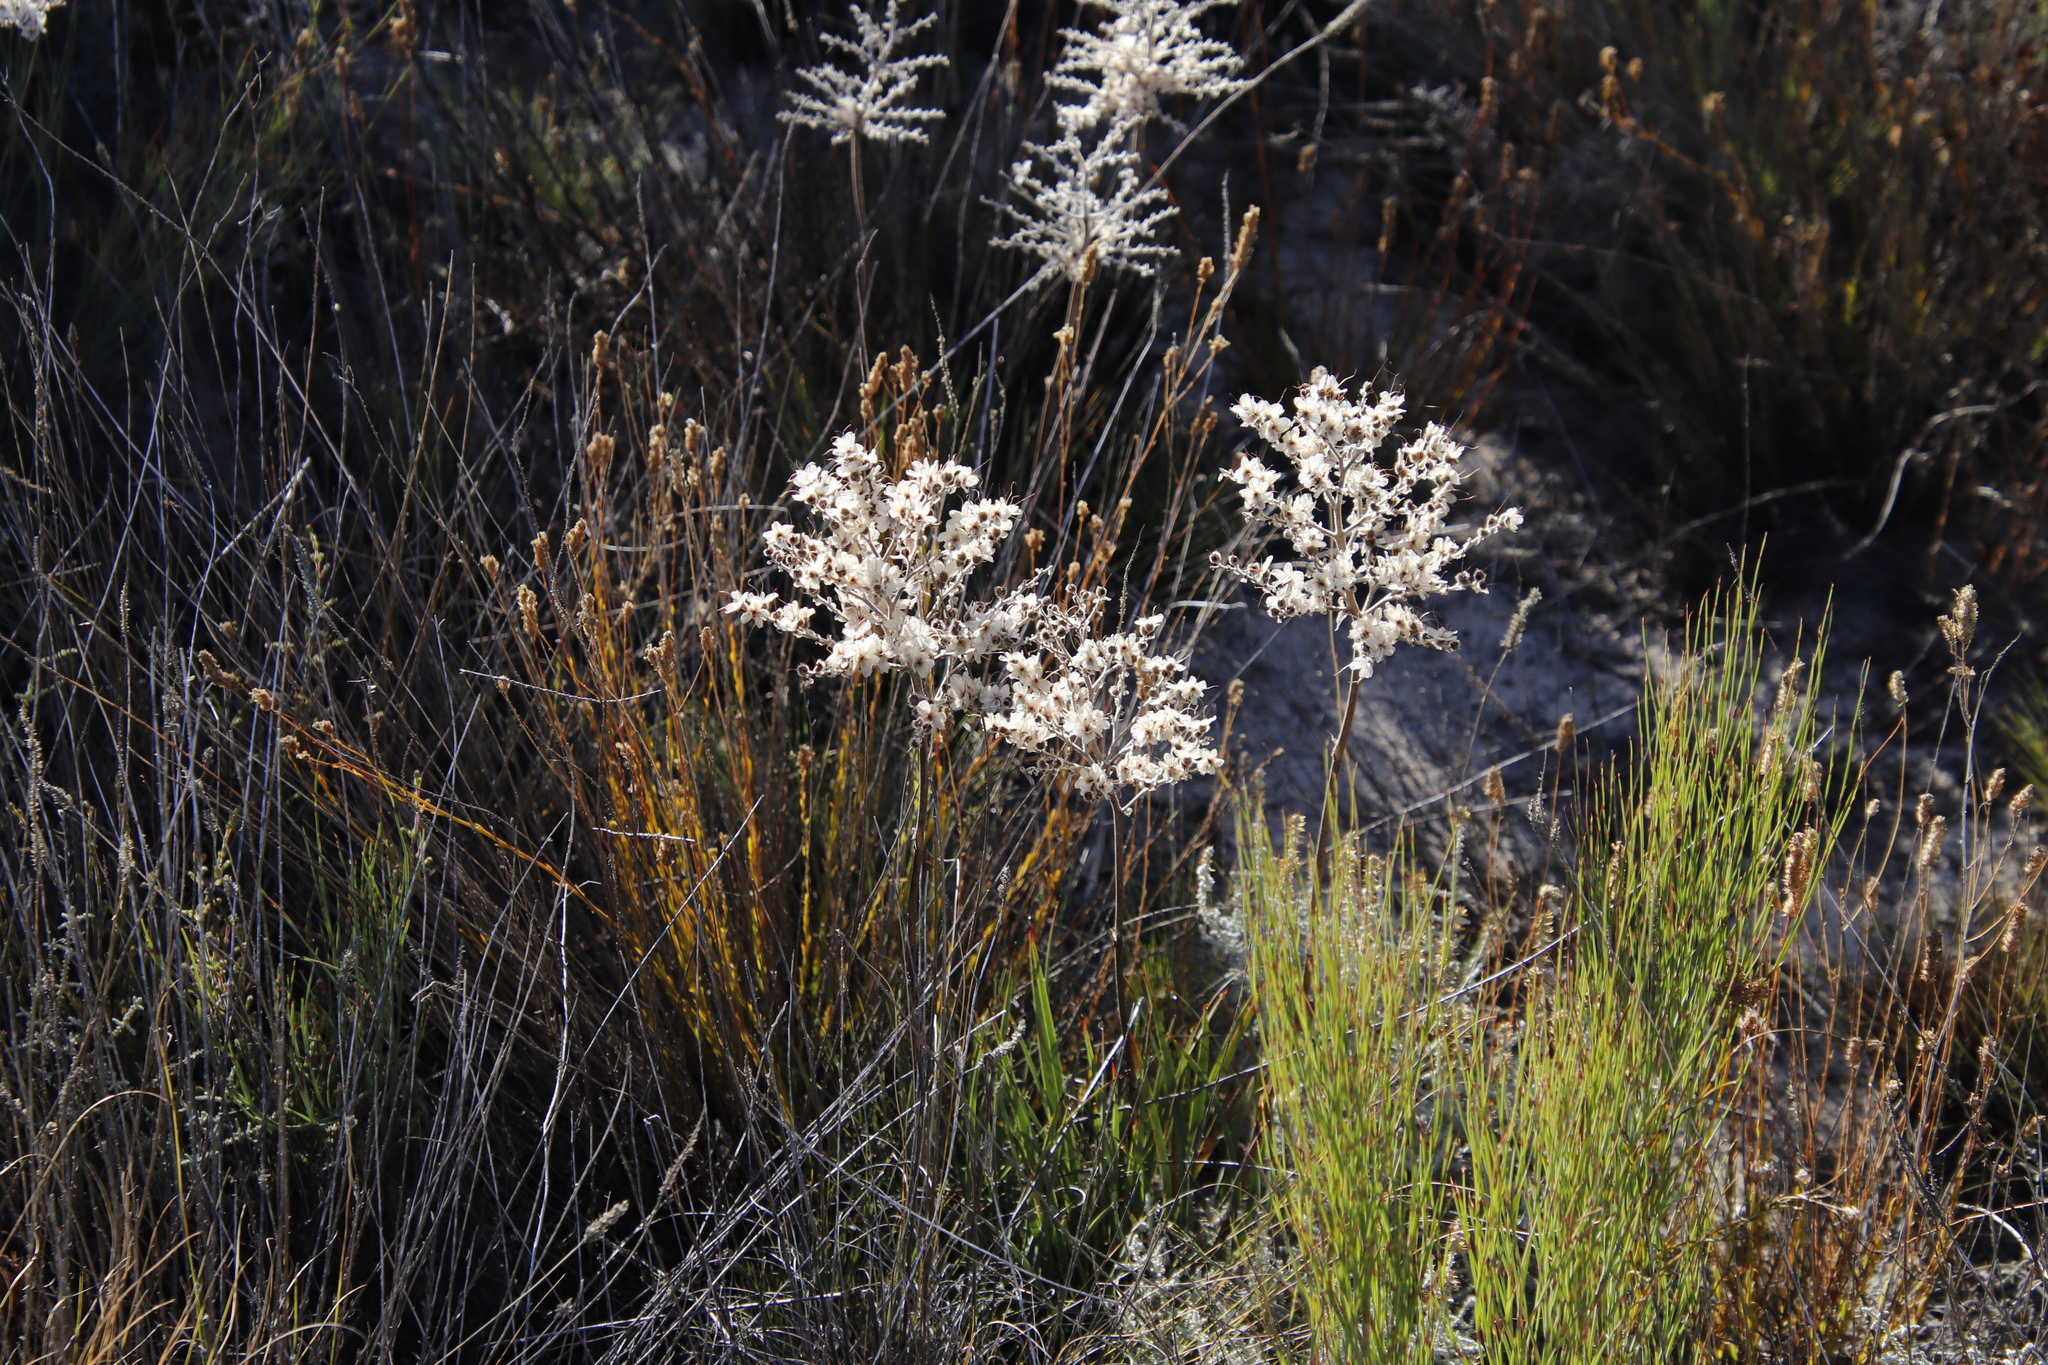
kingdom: Plantae
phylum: Tracheophyta
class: Liliopsida
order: Commelinales
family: Haemodoraceae
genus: Dilatris
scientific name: Dilatris ixioides
